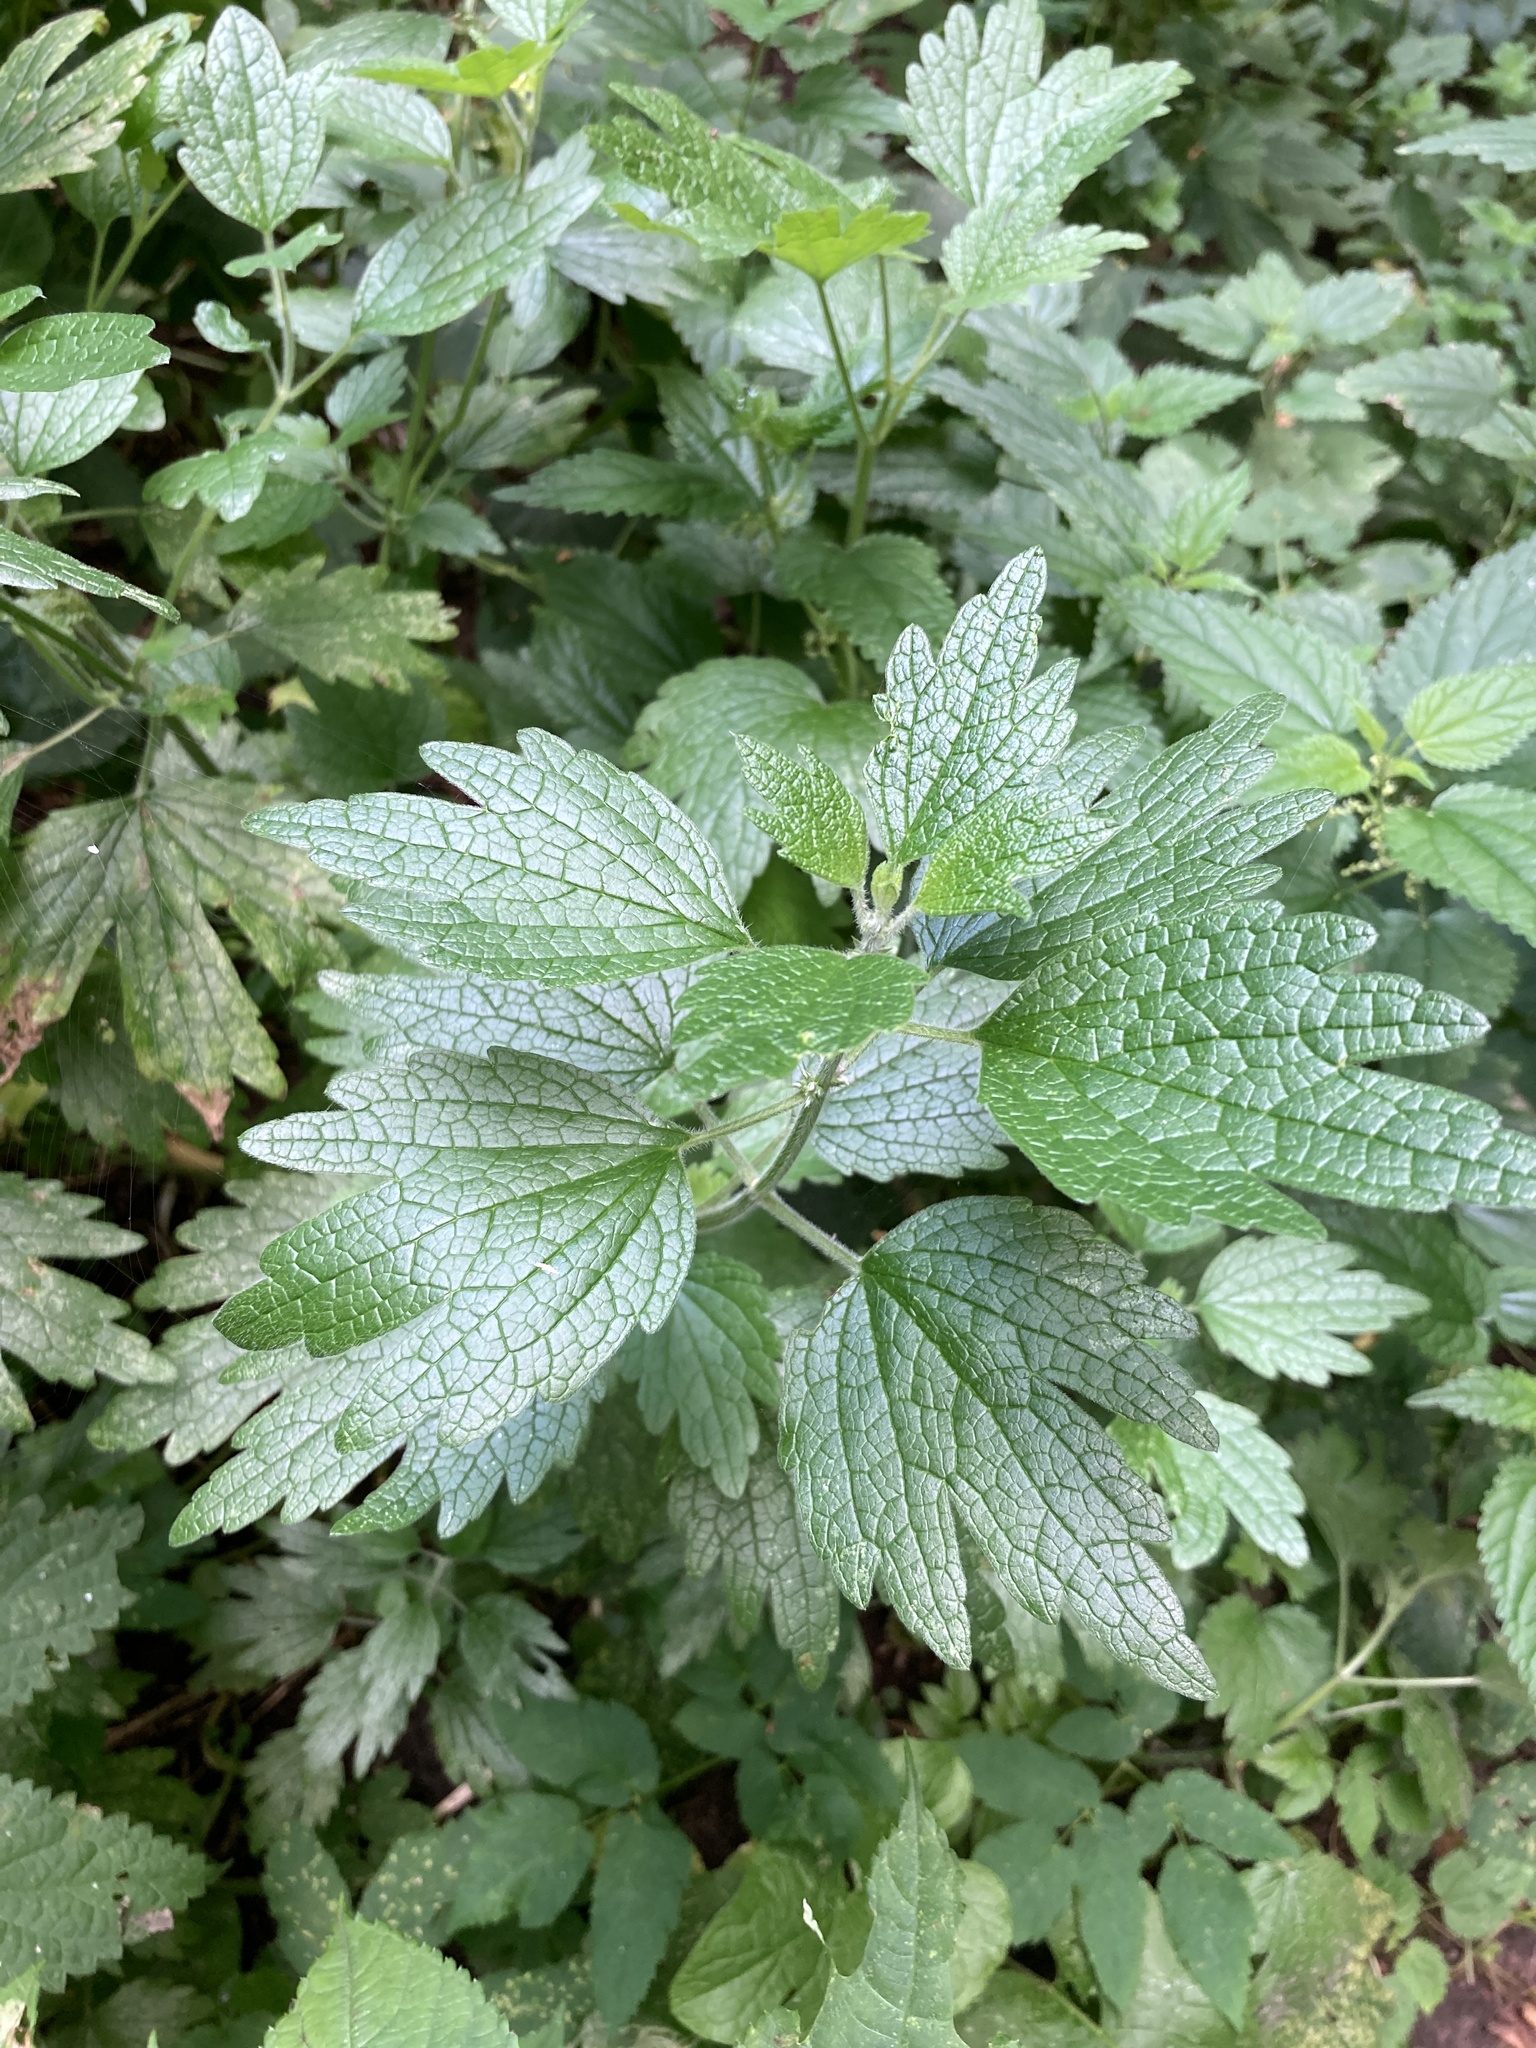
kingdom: Plantae
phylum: Tracheophyta
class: Magnoliopsida
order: Lamiales
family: Lamiaceae
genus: Leonurus
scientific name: Leonurus quinquelobatus
